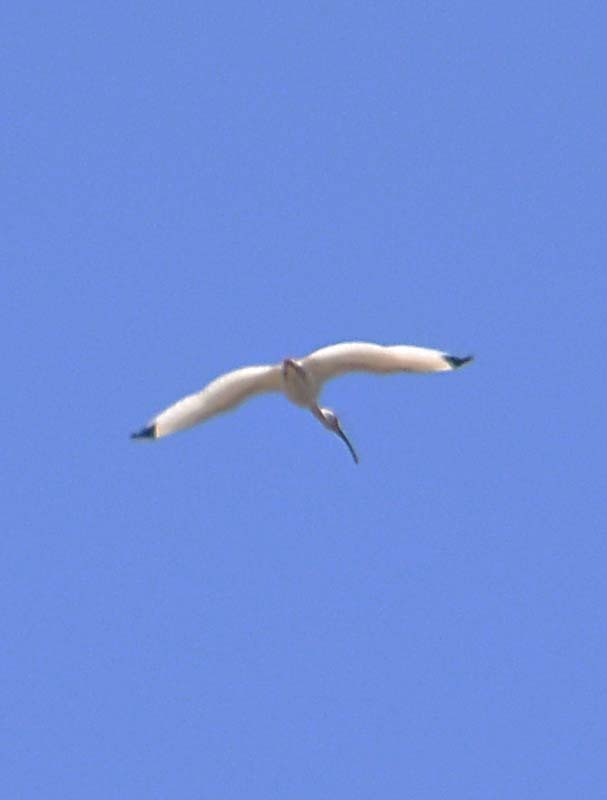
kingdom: Animalia
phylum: Chordata
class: Aves
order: Pelecaniformes
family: Threskiornithidae
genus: Eudocimus
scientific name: Eudocimus albus
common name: White ibis
